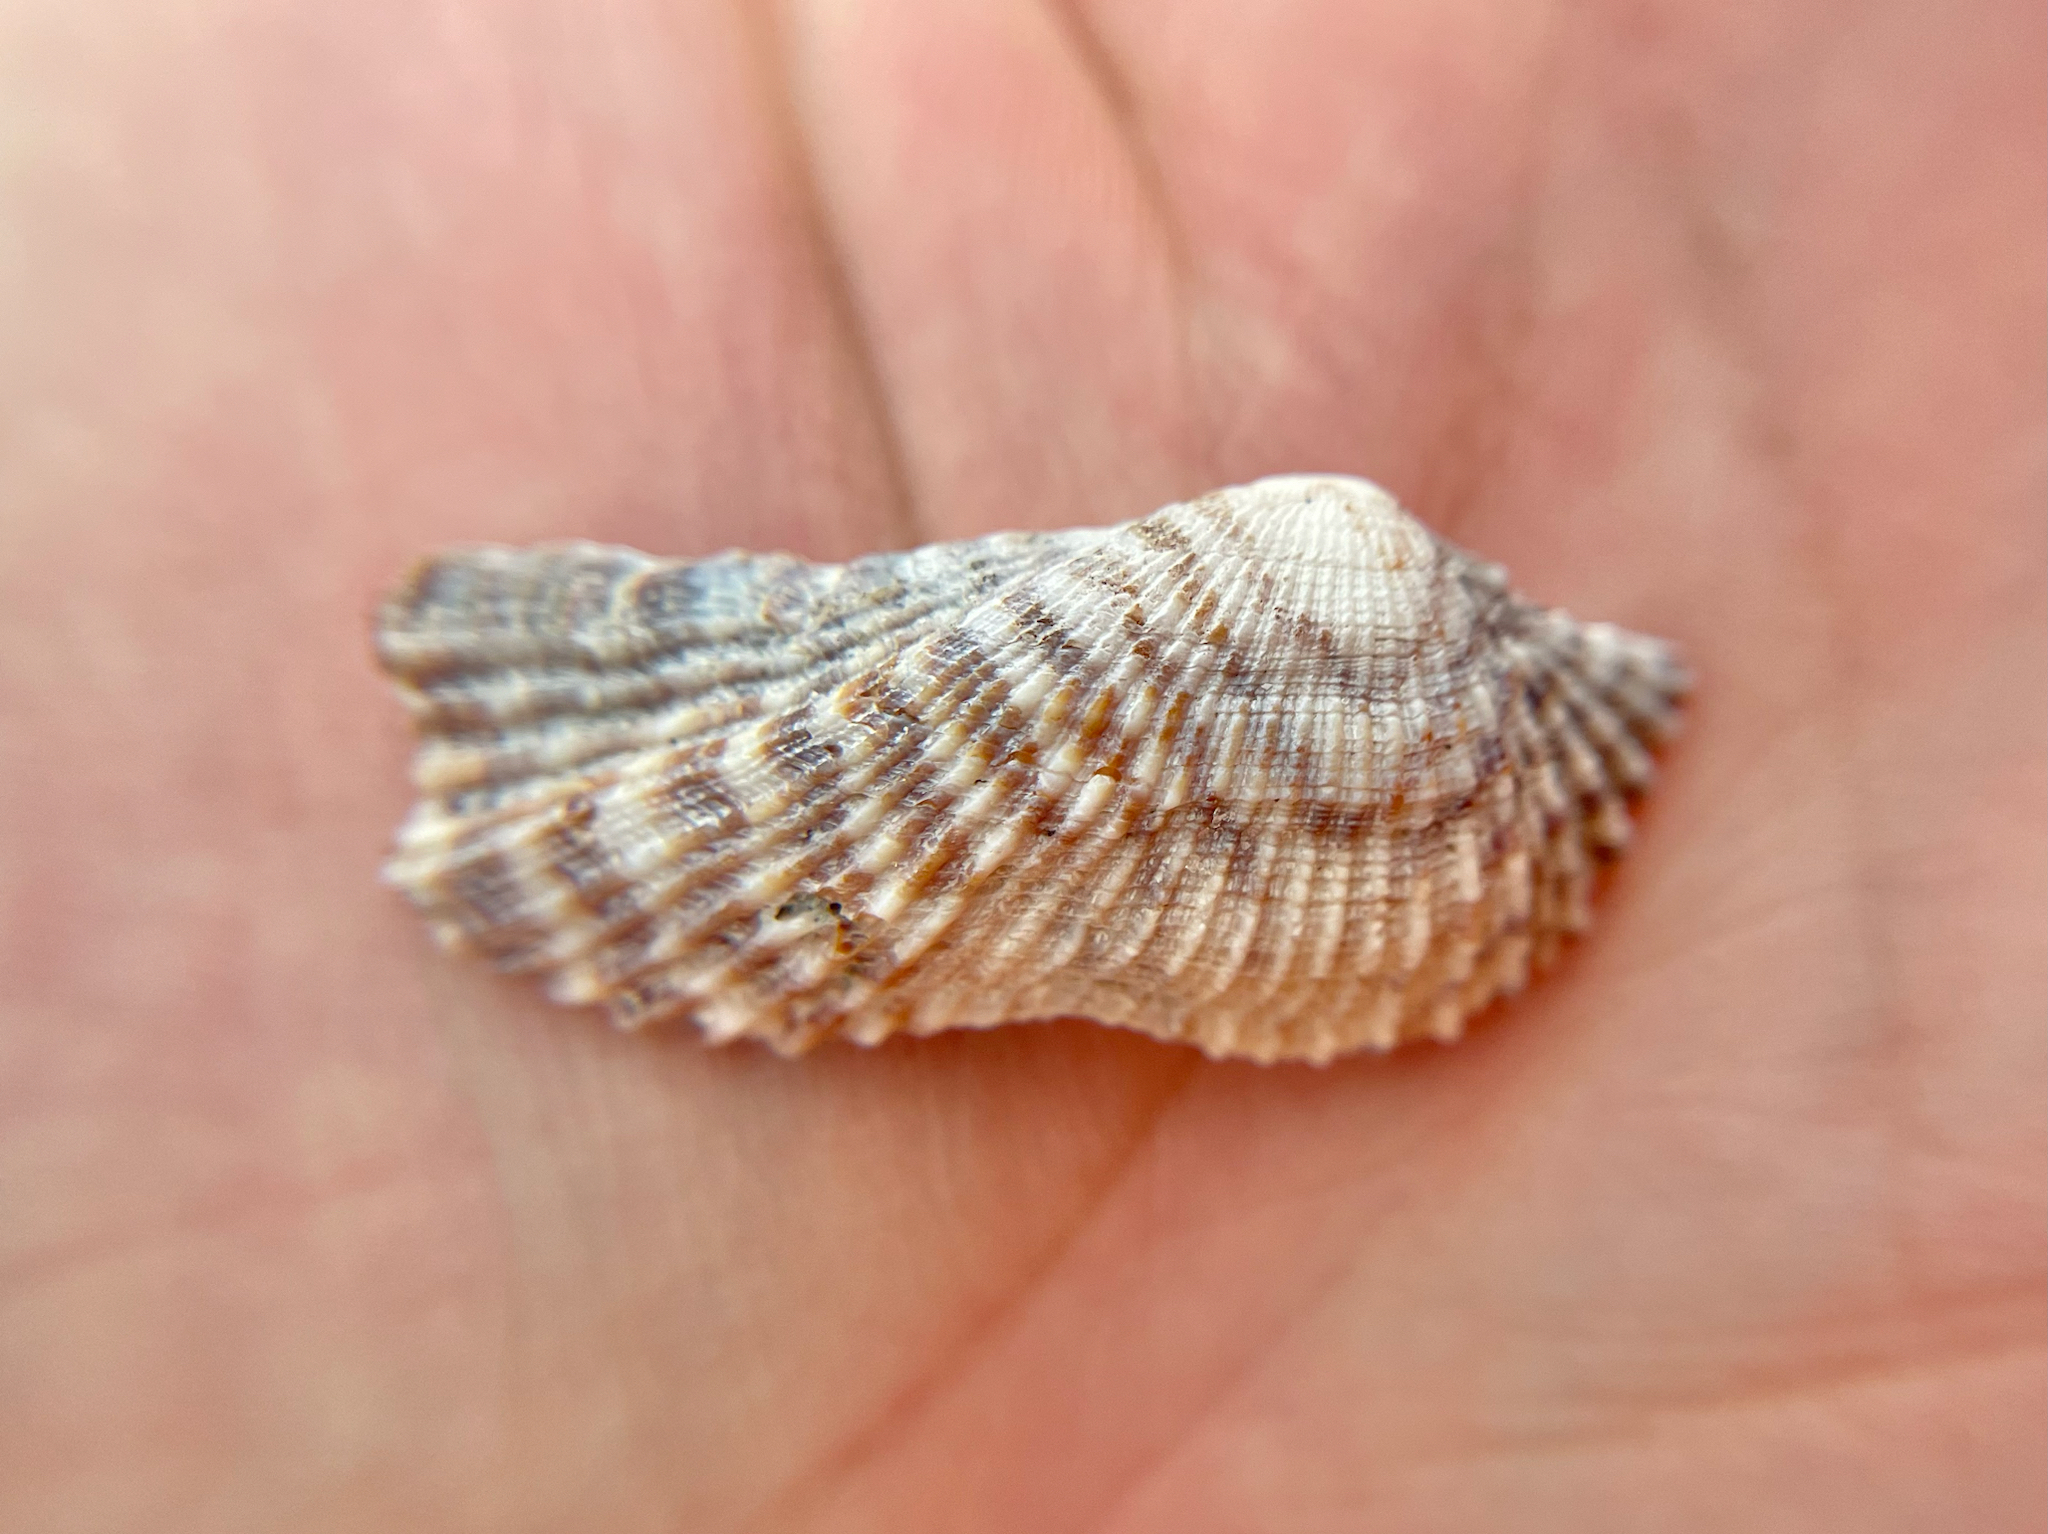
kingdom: Animalia
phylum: Mollusca
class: Bivalvia
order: Arcida
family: Arcidae
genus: Arca
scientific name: Arca zebra
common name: Atlantic turkey wing
